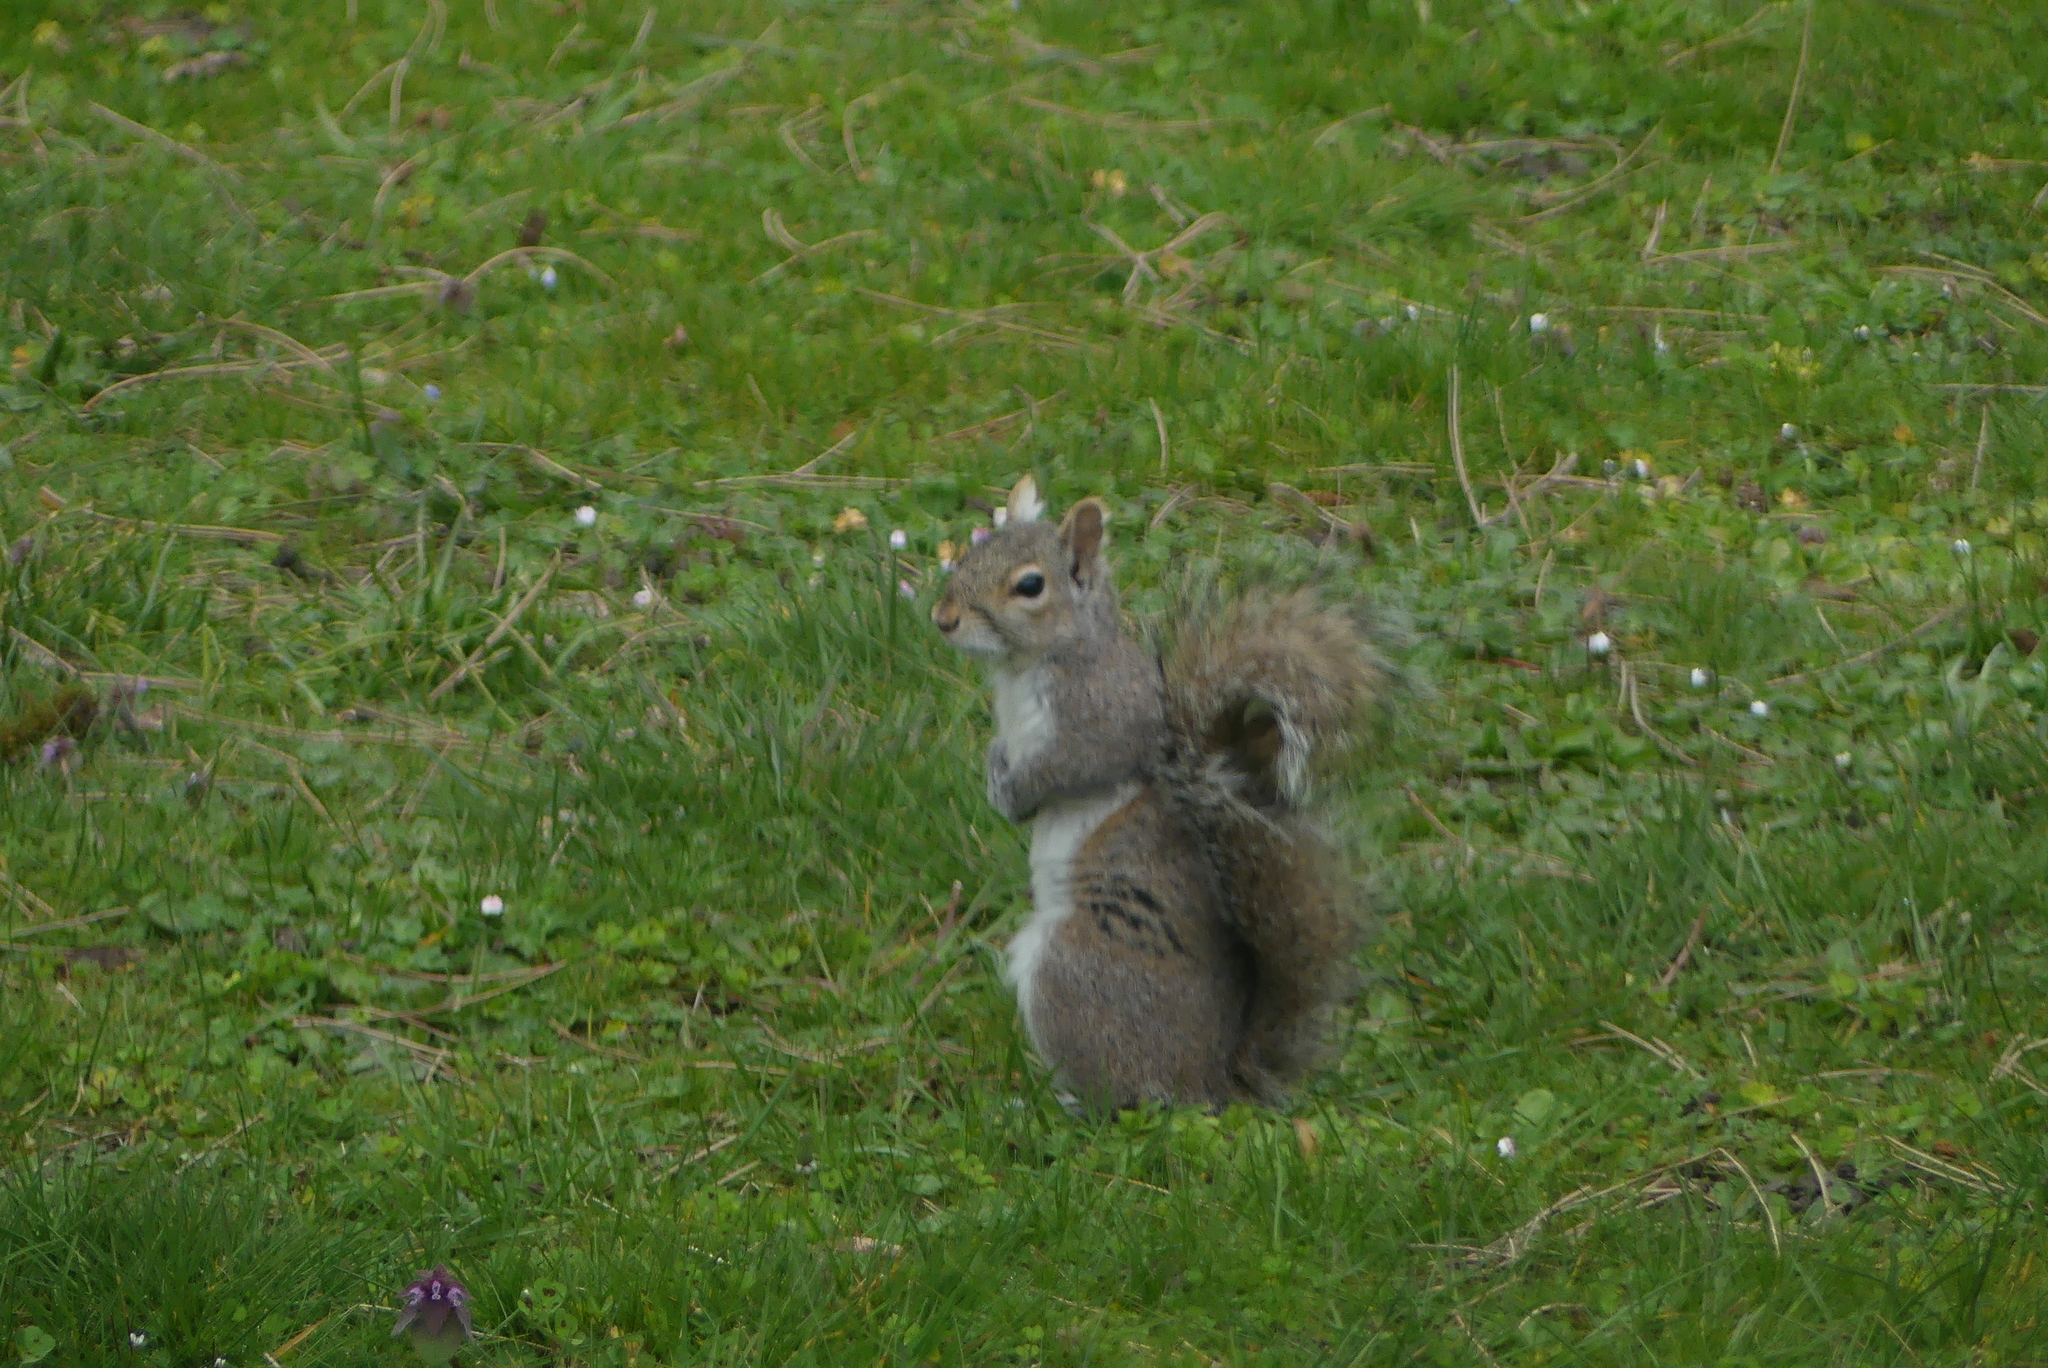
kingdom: Animalia
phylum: Chordata
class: Mammalia
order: Rodentia
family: Sciuridae
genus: Sciurus
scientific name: Sciurus carolinensis
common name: Eastern gray squirrel
